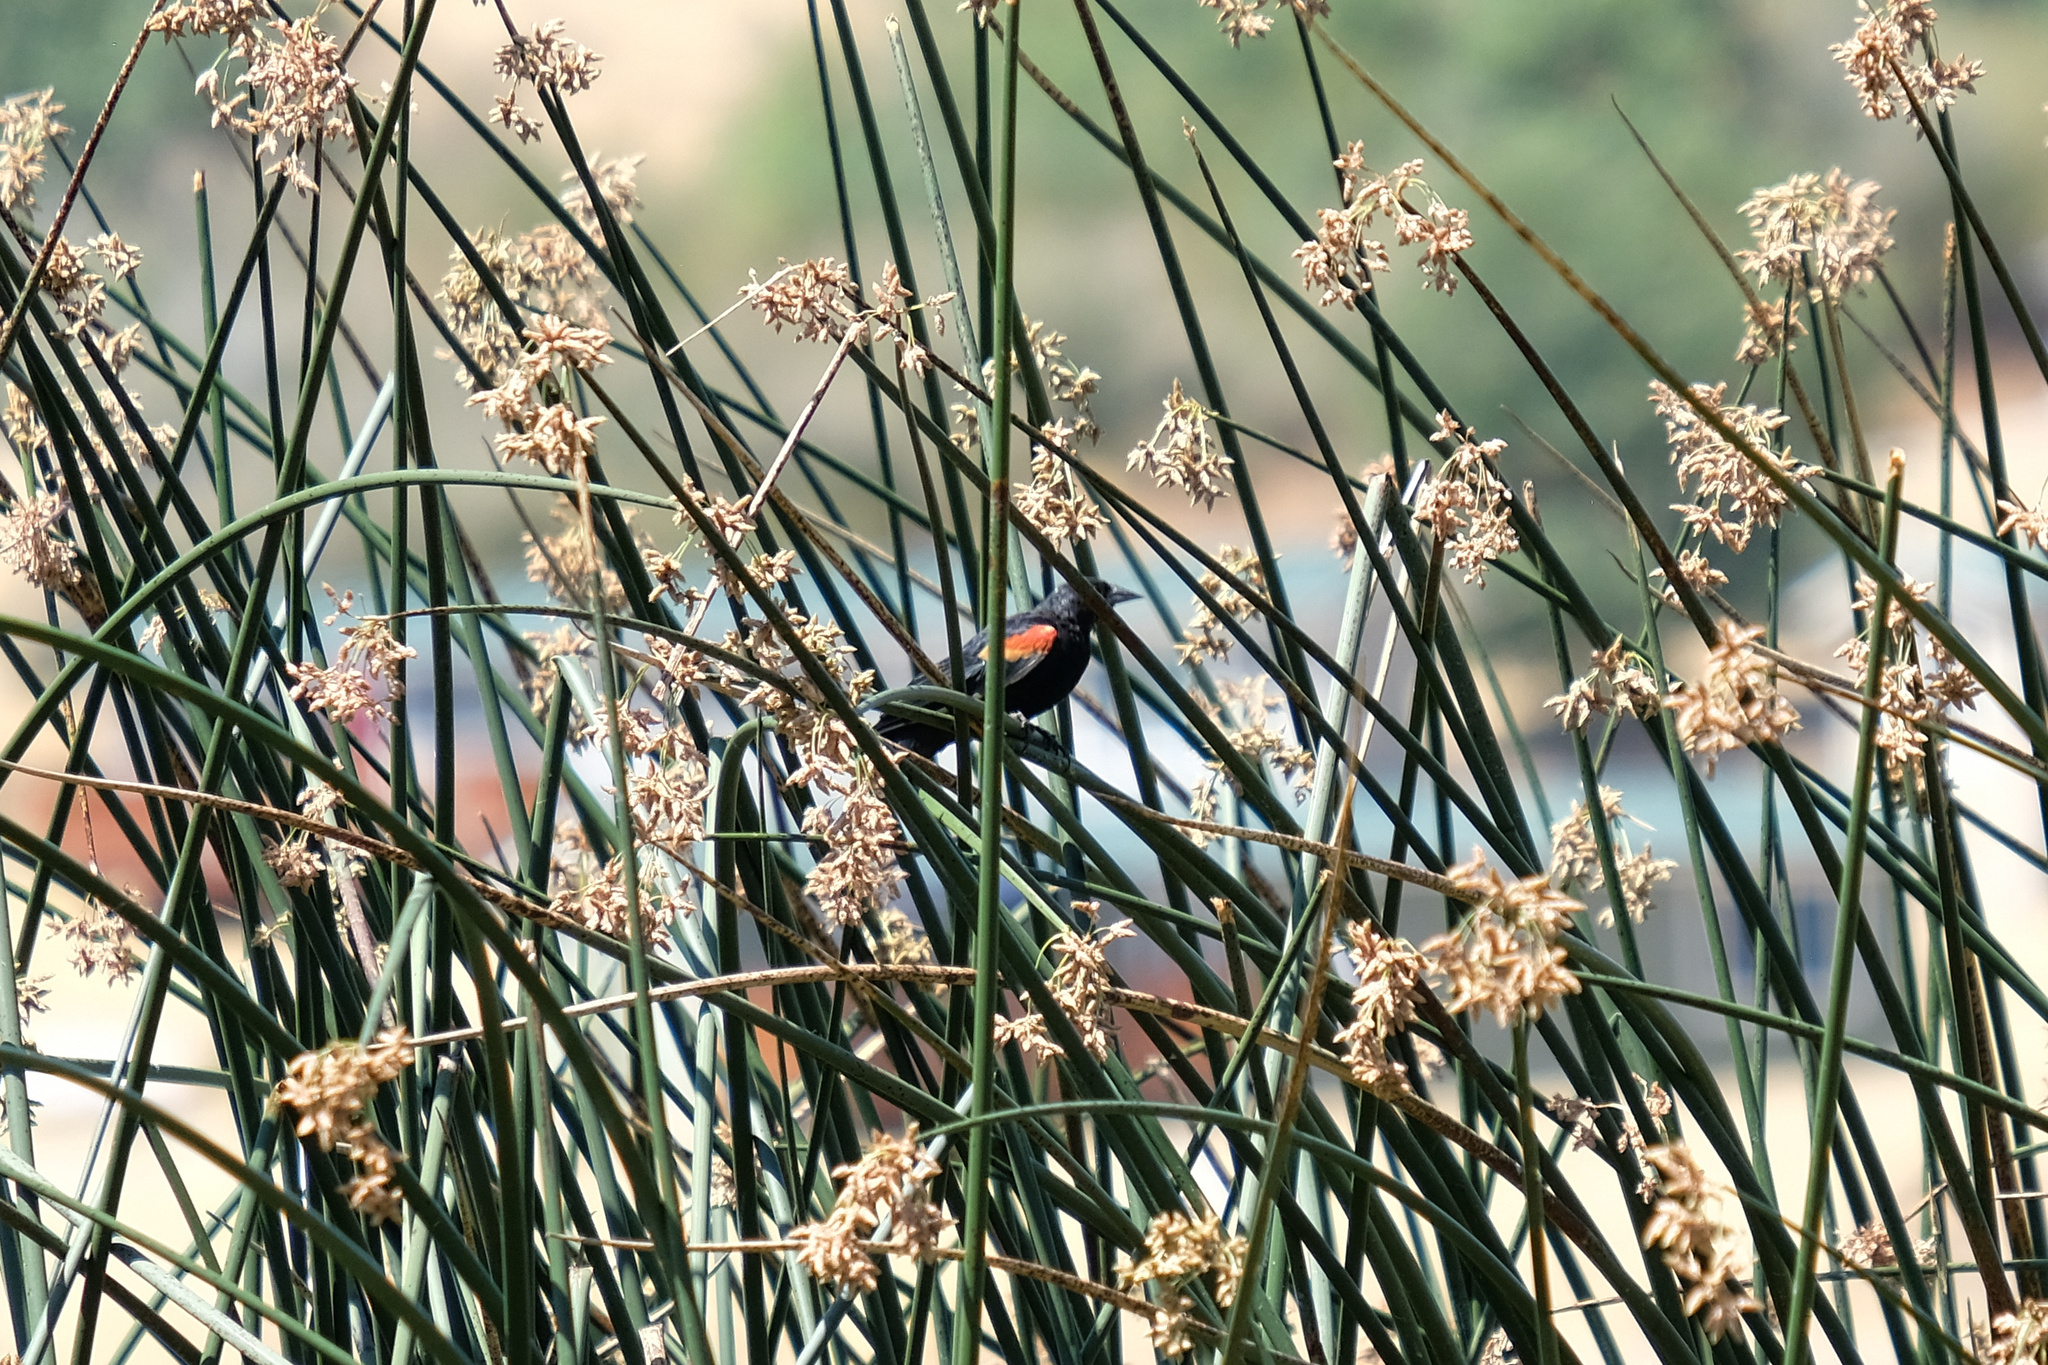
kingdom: Animalia
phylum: Chordata
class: Aves
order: Passeriformes
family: Icteridae
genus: Agelaius
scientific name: Agelaius phoeniceus
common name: Red-winged blackbird
